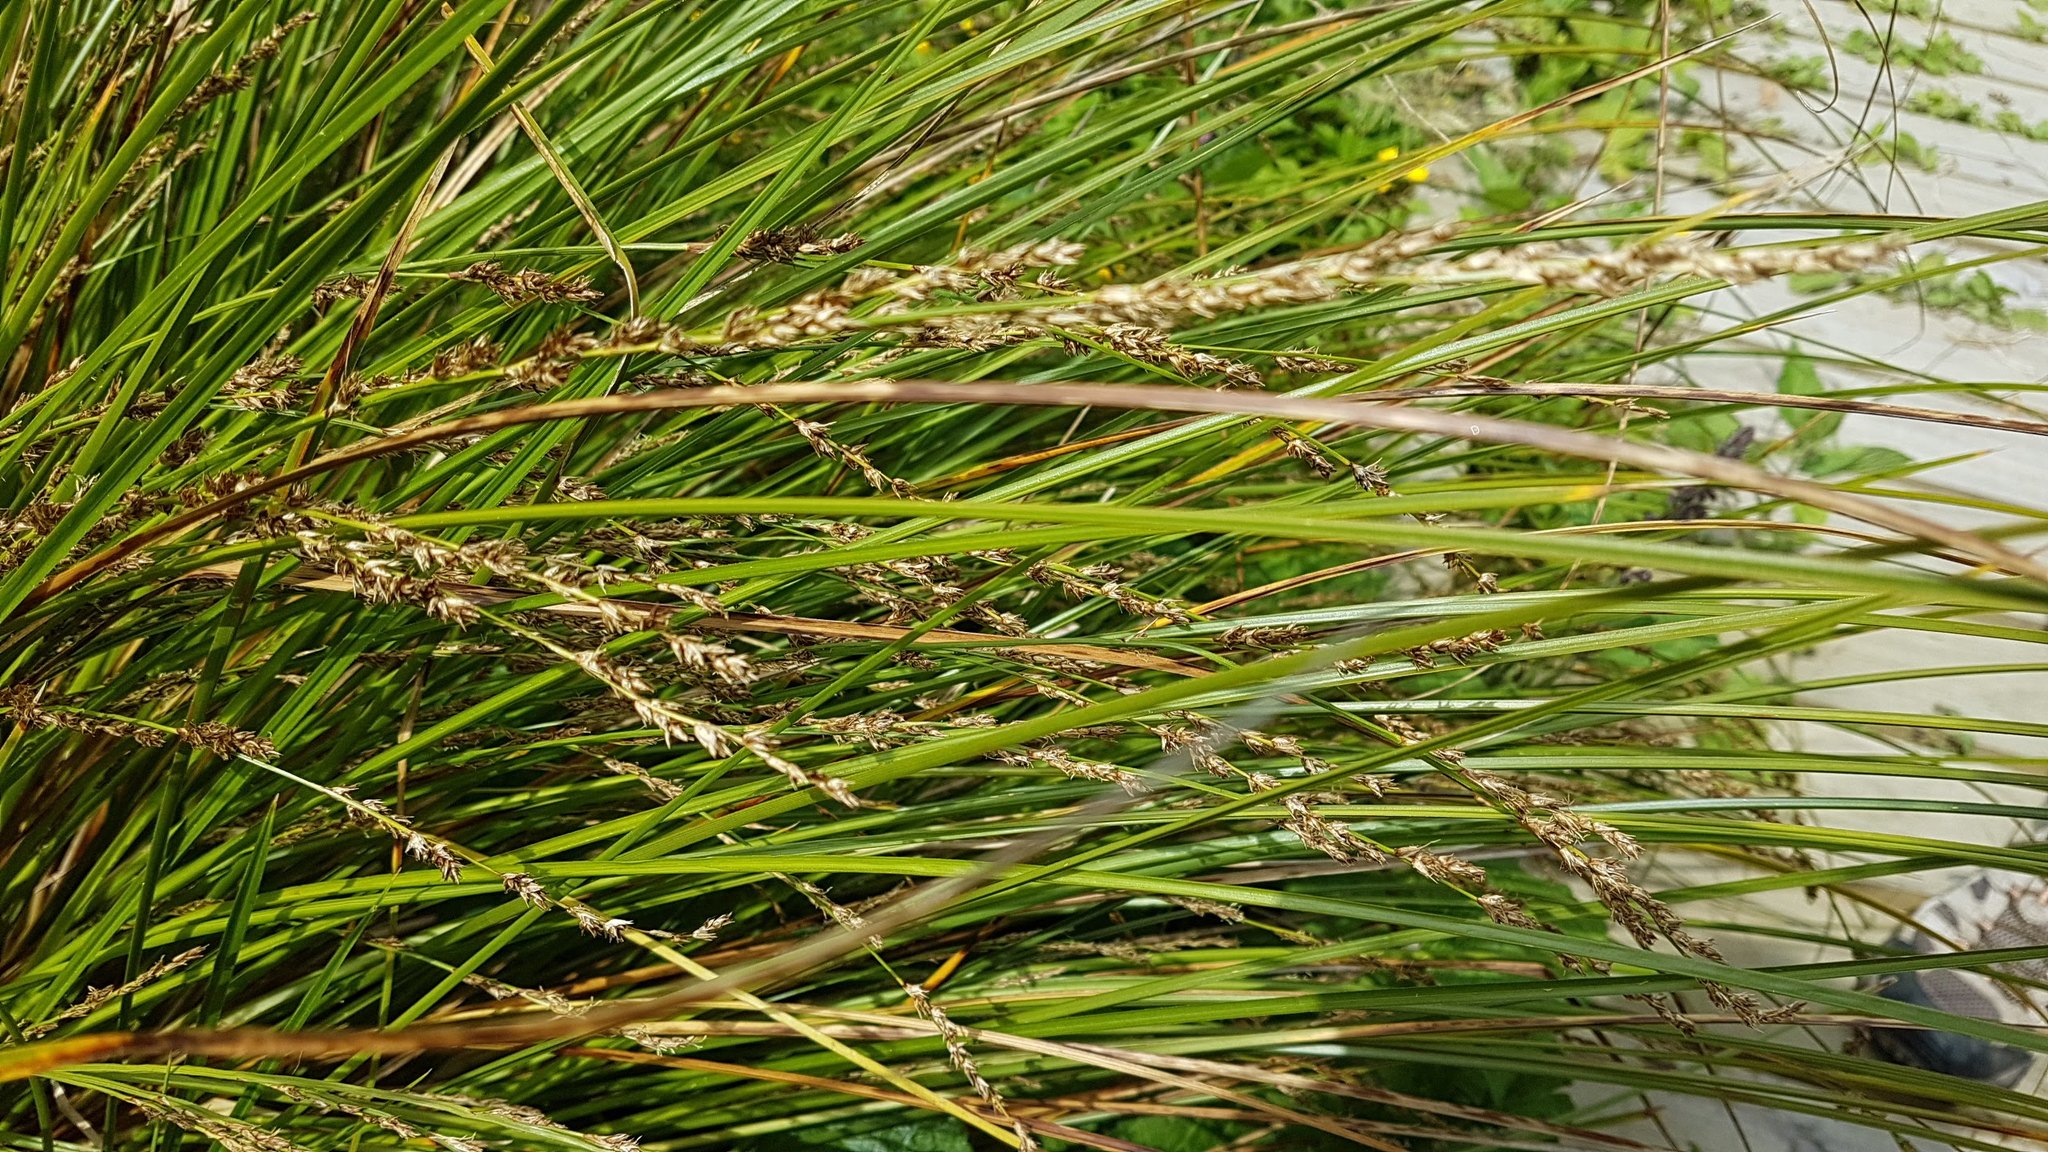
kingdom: Plantae
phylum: Tracheophyta
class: Liliopsida
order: Poales
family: Cyperaceae
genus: Carex
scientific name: Carex secta
